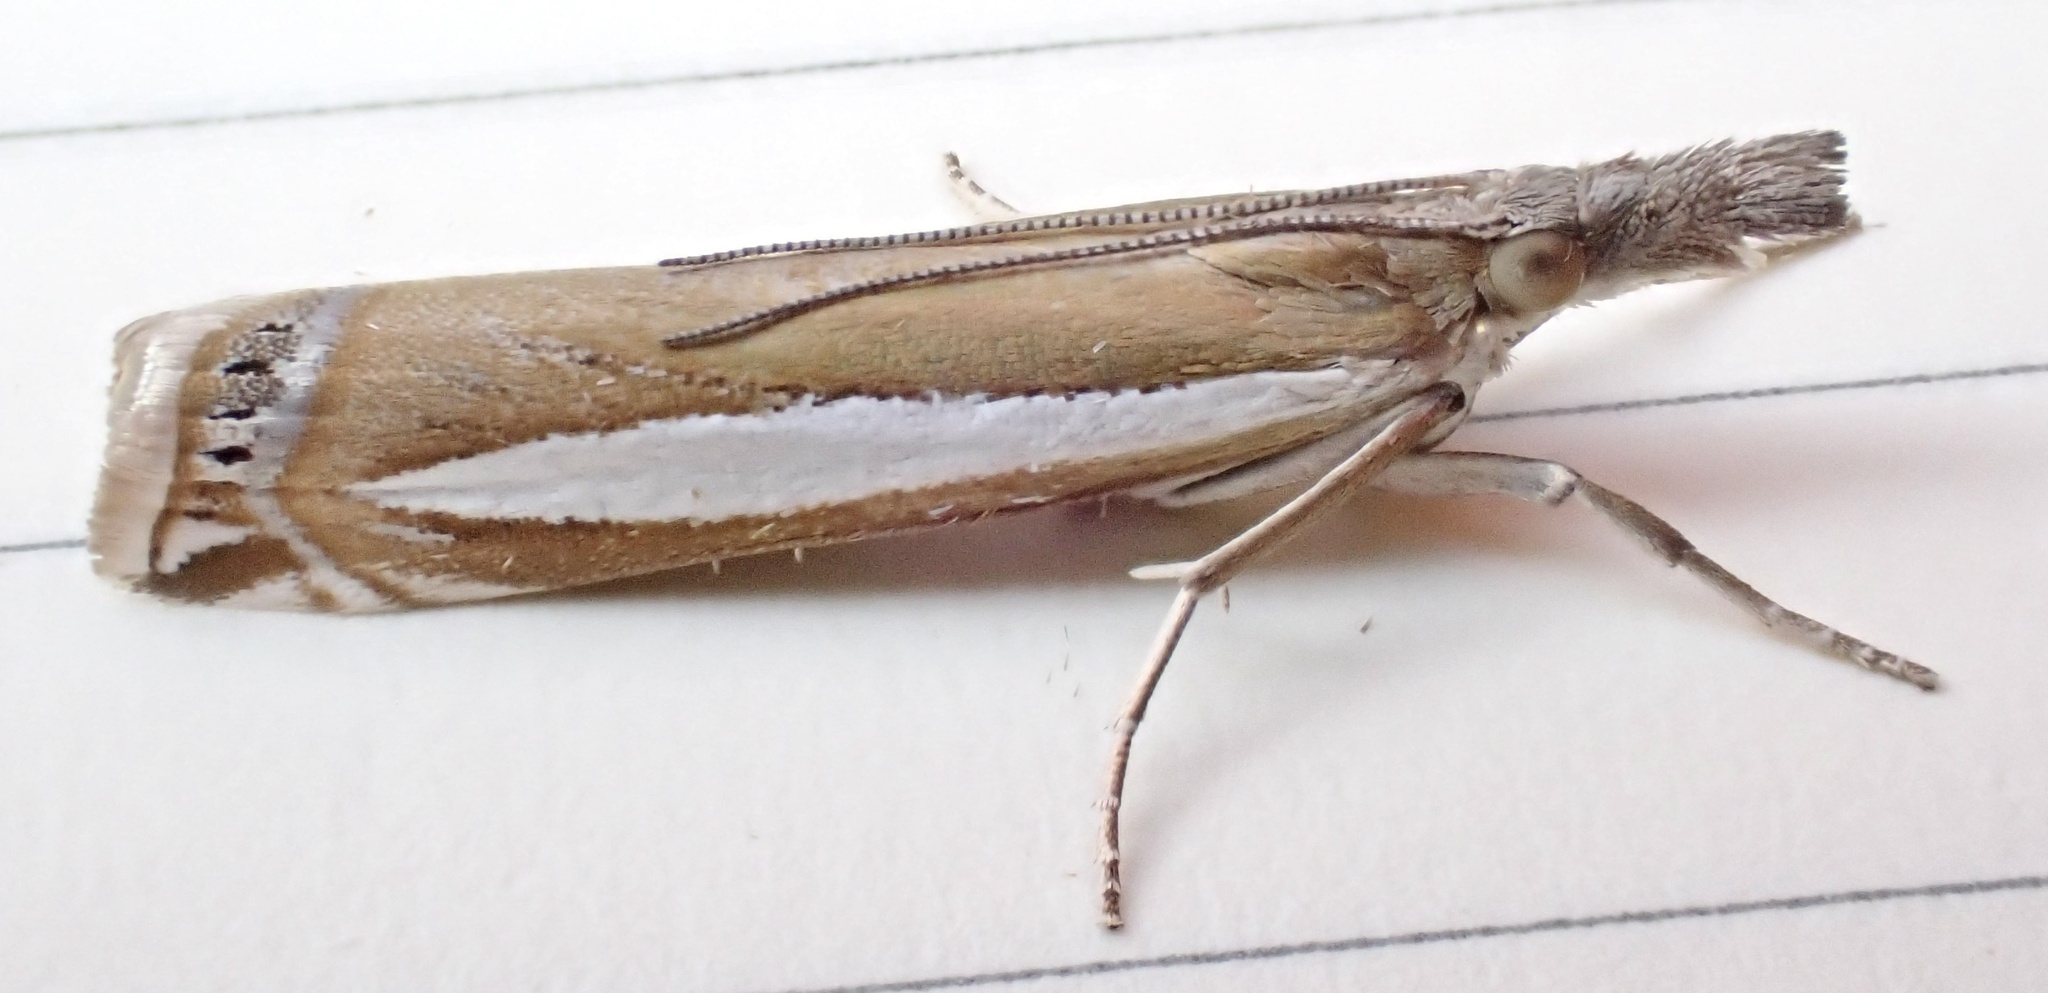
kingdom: Animalia
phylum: Arthropoda
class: Insecta
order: Lepidoptera
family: Crambidae
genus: Crambus
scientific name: Crambus praefectellus
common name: Common grass-veneer
